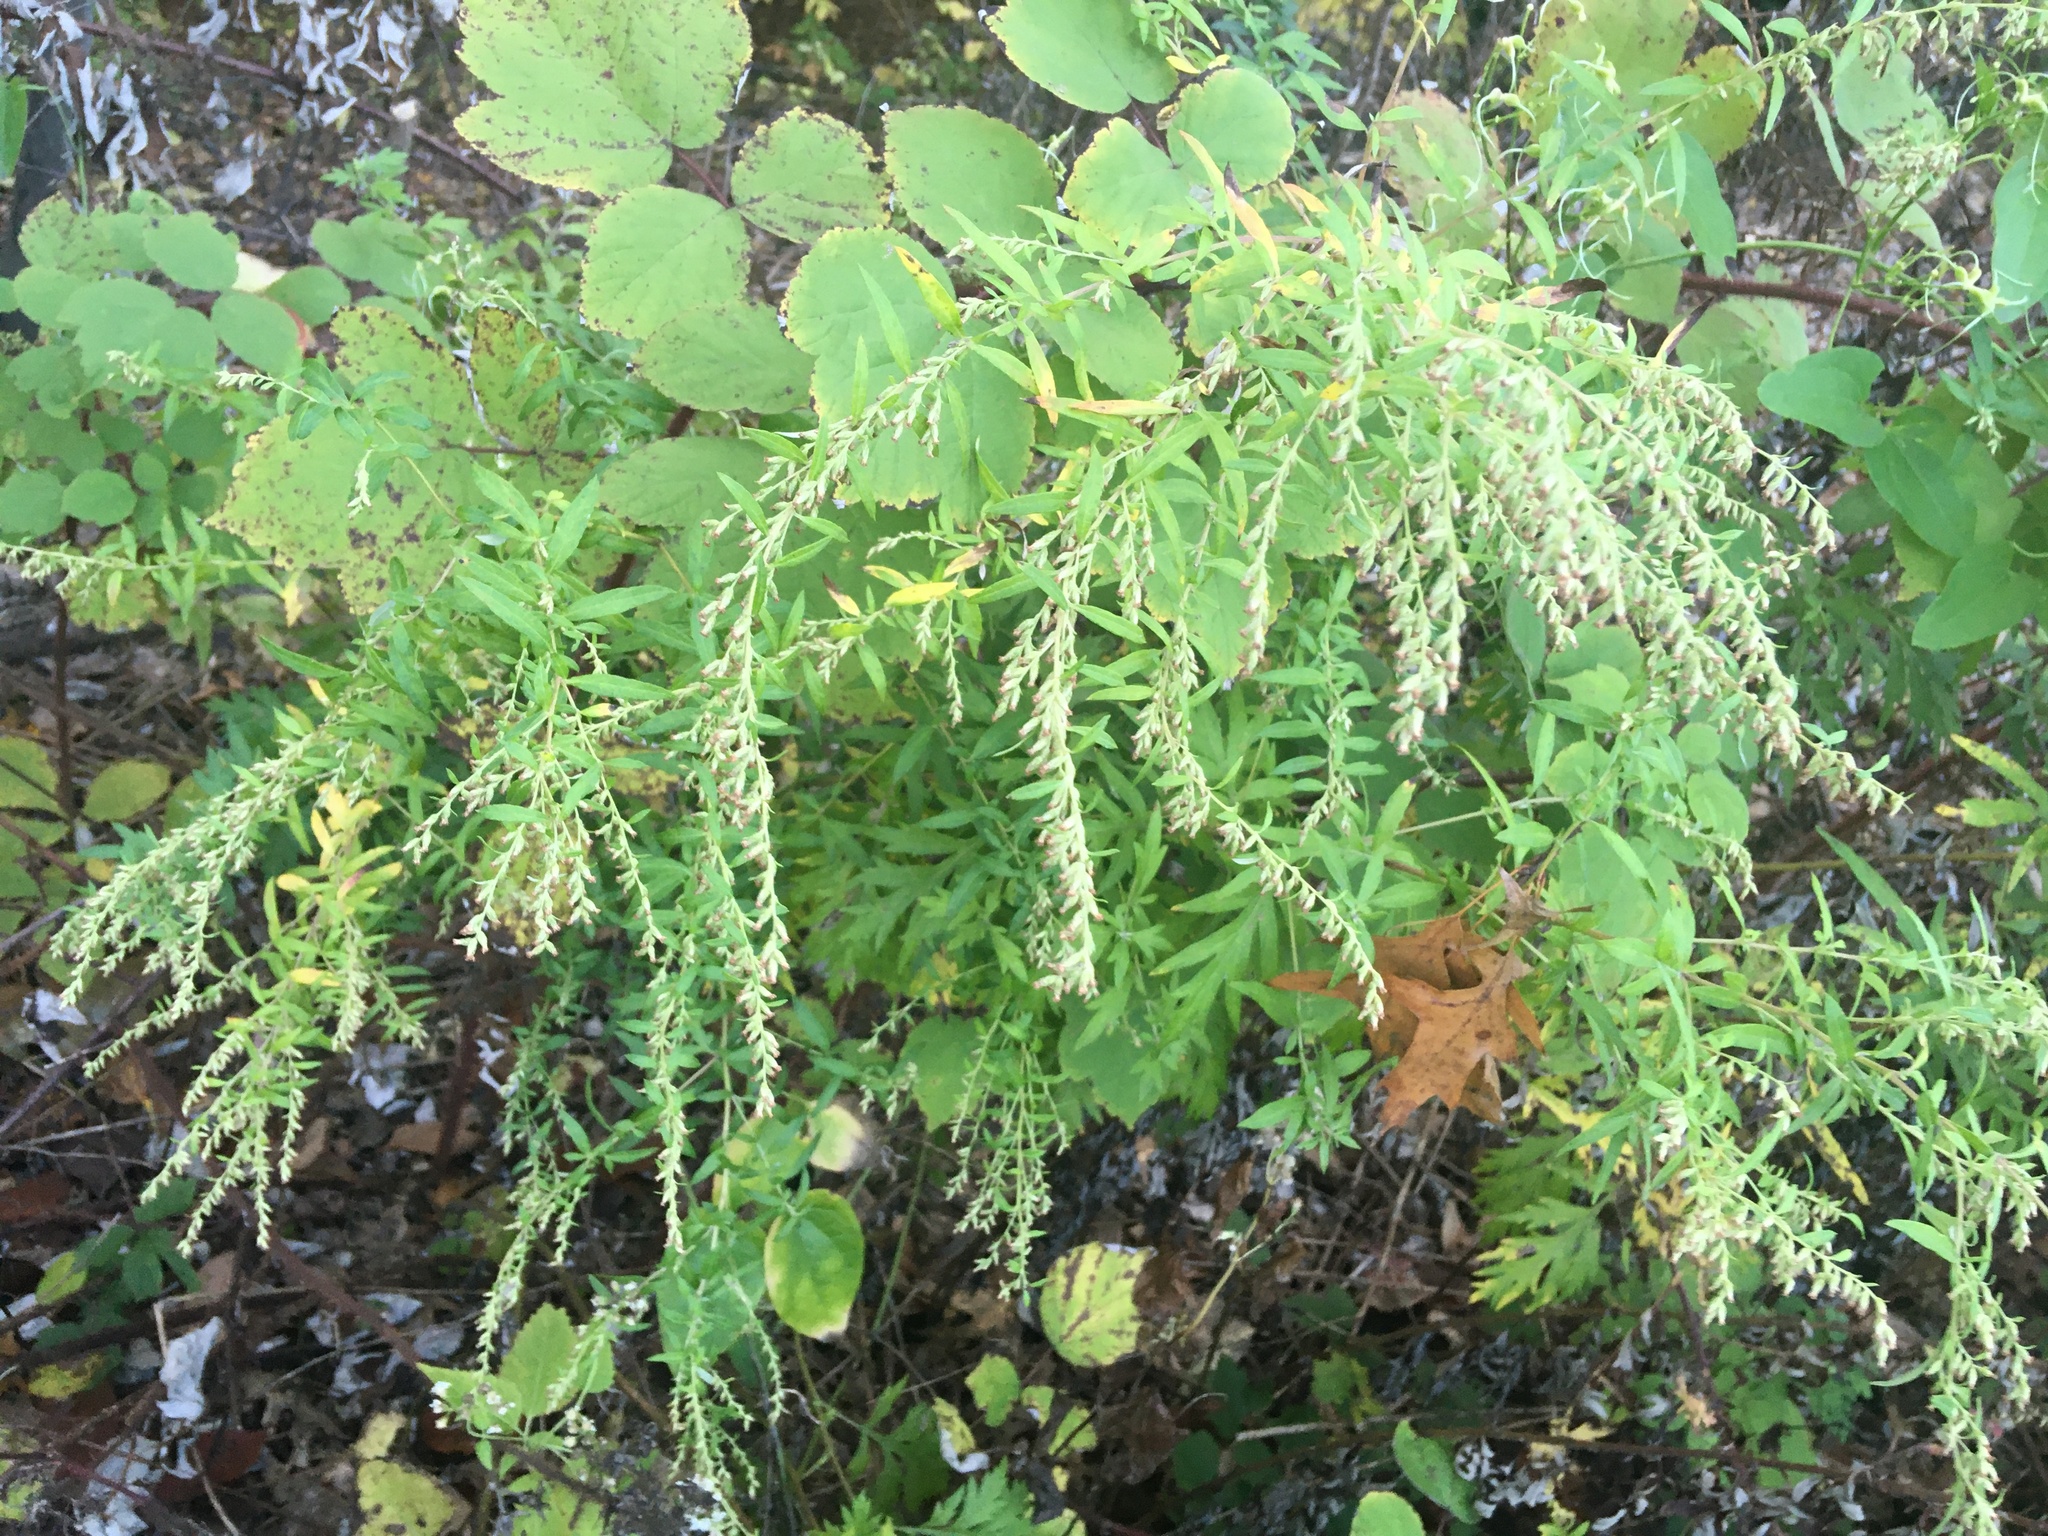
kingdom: Plantae
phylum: Tracheophyta
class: Magnoliopsida
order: Asterales
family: Asteraceae
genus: Artemisia
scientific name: Artemisia vulgaris
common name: Mugwort
